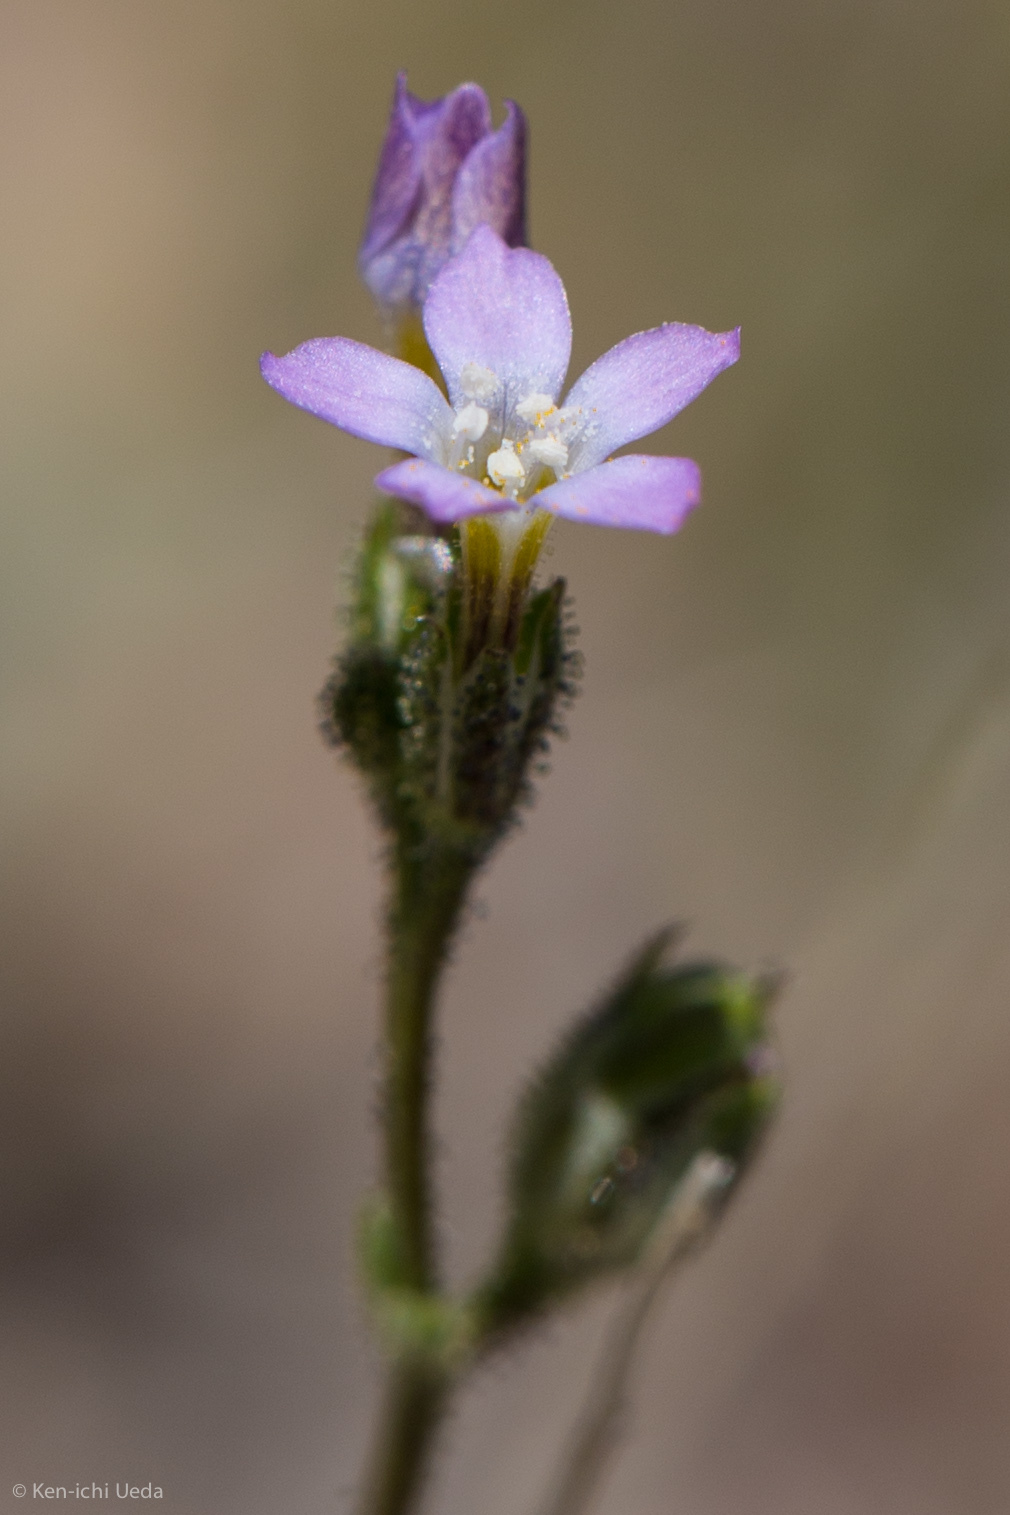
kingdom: Plantae
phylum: Tracheophyta
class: Magnoliopsida
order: Ericales
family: Polemoniaceae
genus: Gilia
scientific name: Gilia sinuata
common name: Rosy gilia
